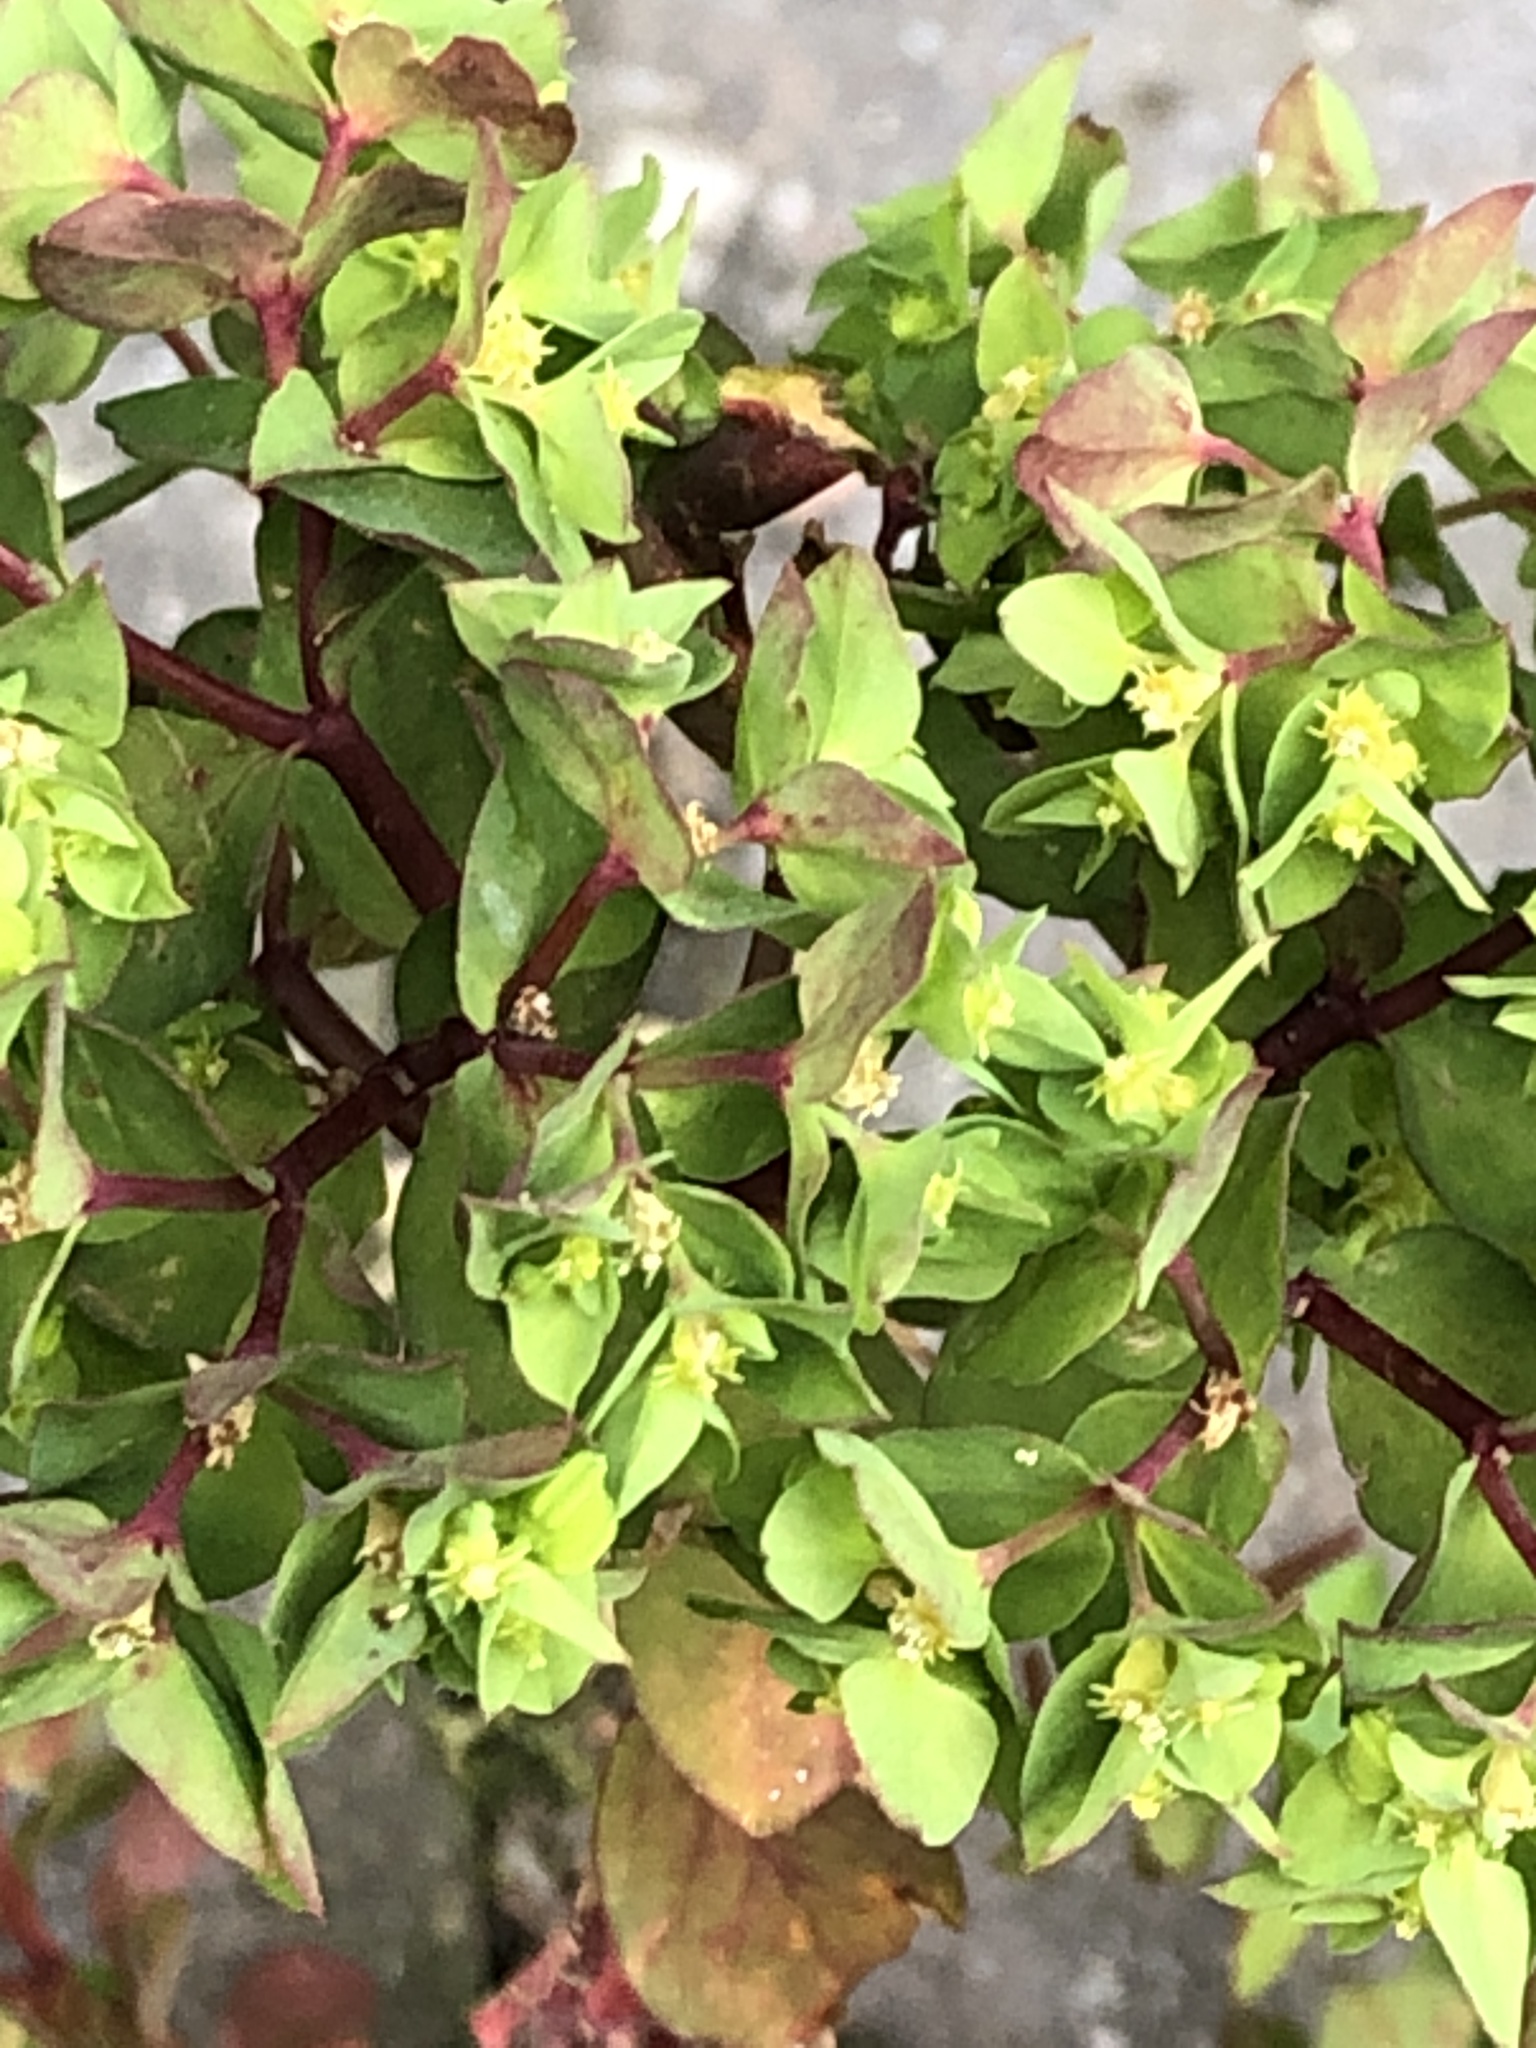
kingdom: Plantae
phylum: Tracheophyta
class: Magnoliopsida
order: Malpighiales
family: Euphorbiaceae
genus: Euphorbia
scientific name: Euphorbia peplus
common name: Petty spurge
